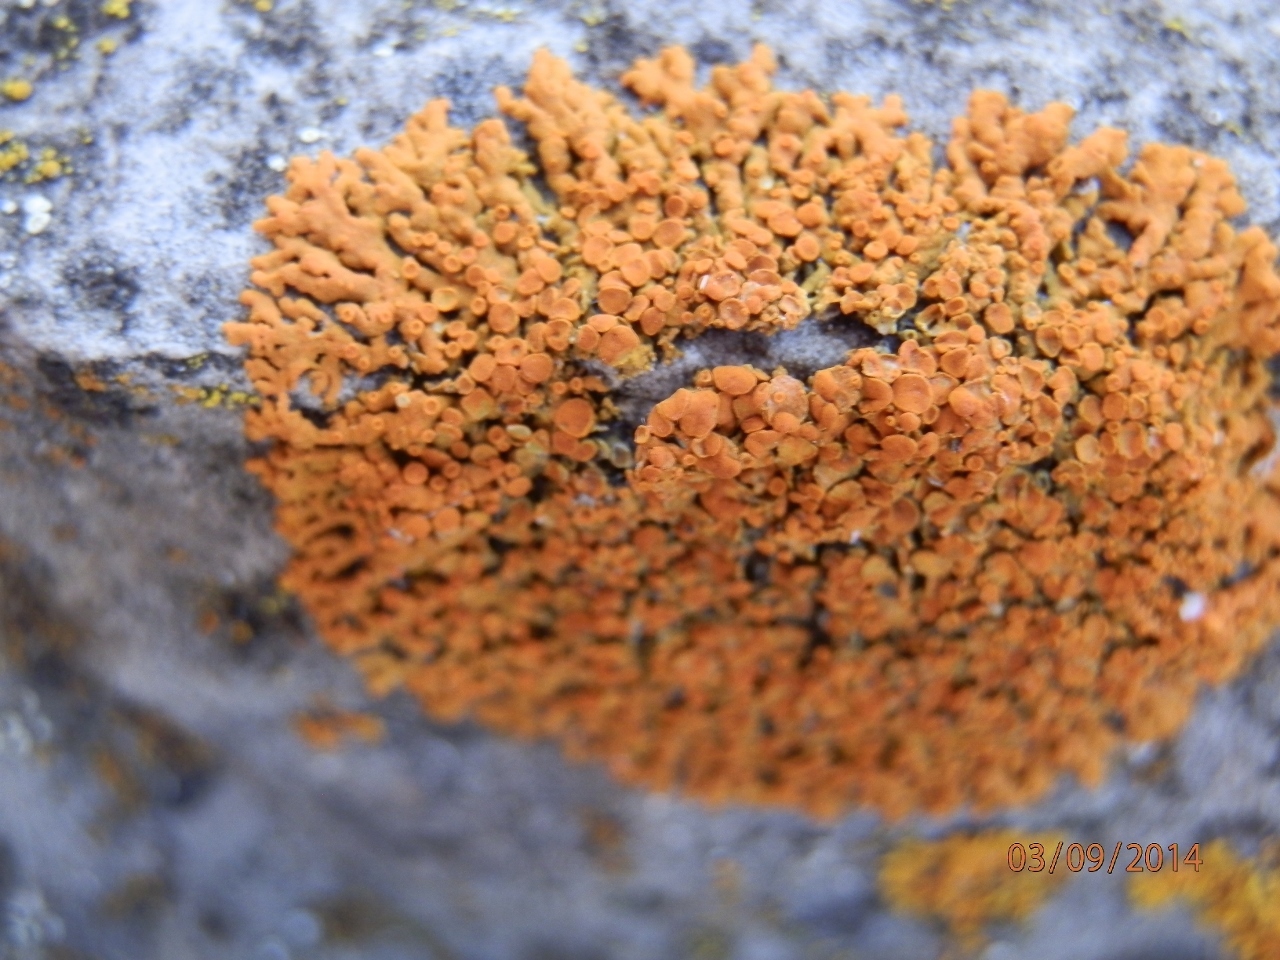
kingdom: Fungi
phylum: Ascomycota
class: Lecanoromycetes
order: Teloschistales
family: Teloschistaceae
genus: Xanthoria
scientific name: Xanthoria elegans
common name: Elegant sunburst lichen
